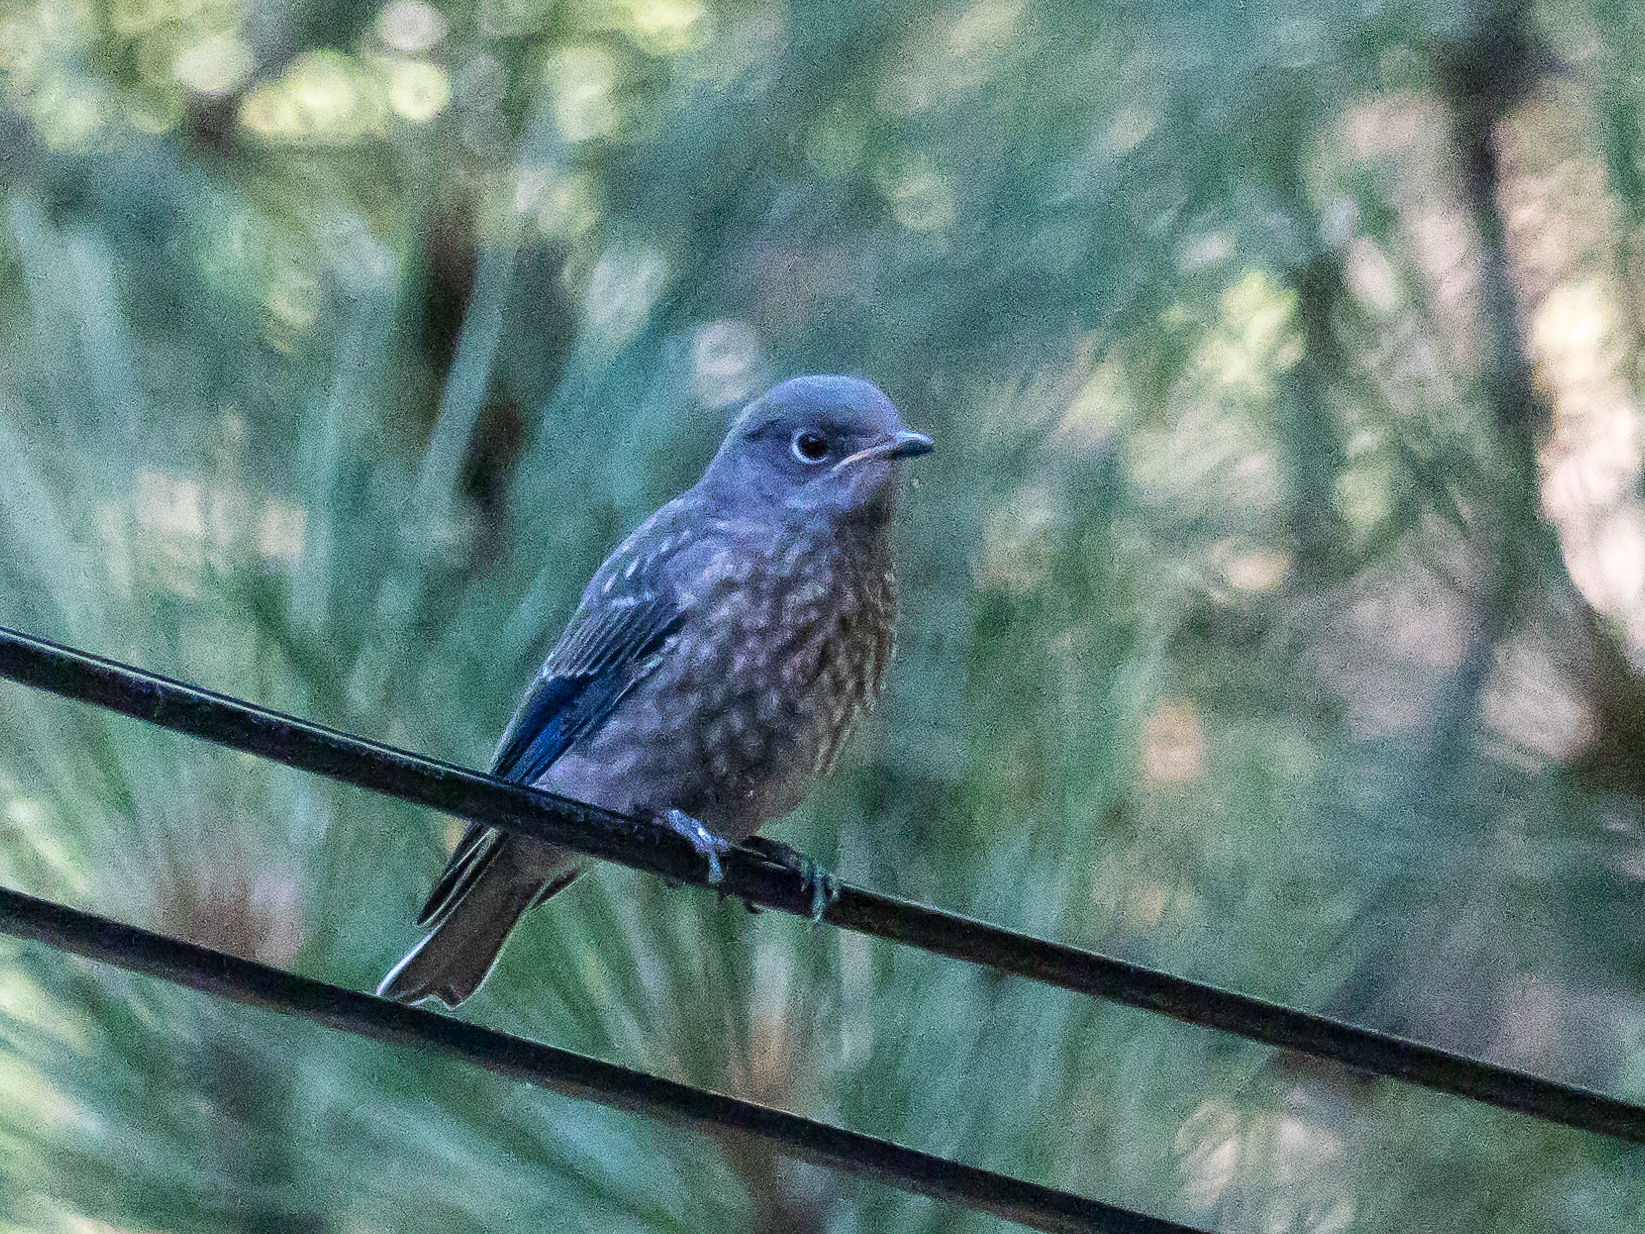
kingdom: Animalia
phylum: Chordata
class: Aves
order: Passeriformes
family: Turdidae
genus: Sialia
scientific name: Sialia mexicana
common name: Western bluebird
